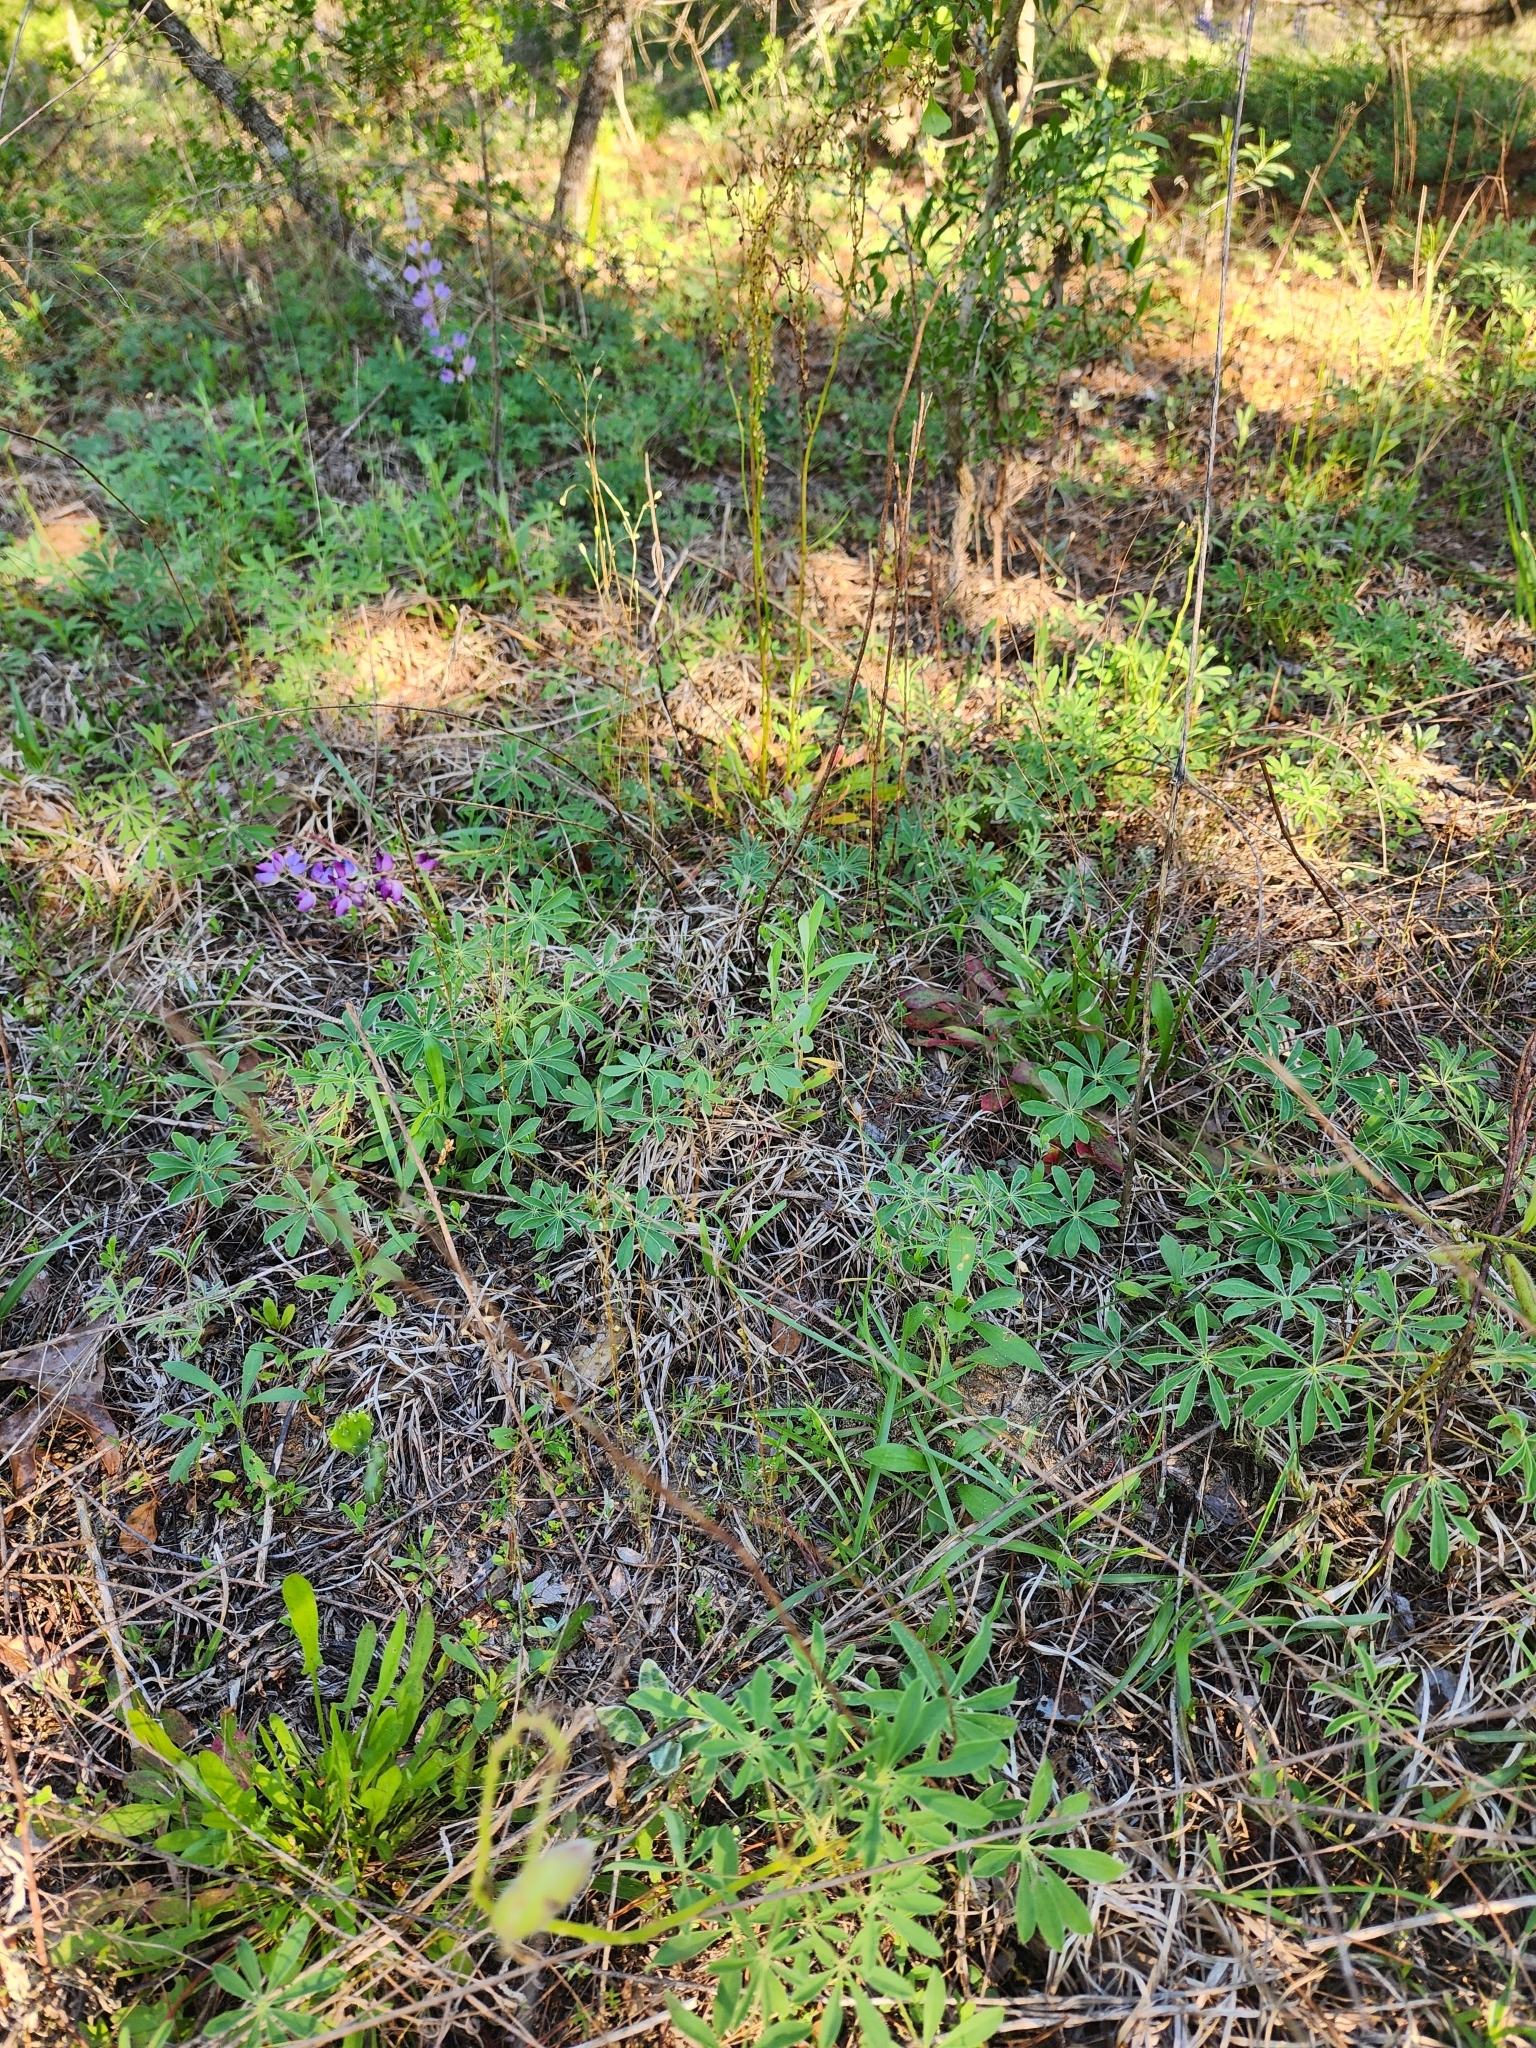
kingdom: Plantae
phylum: Tracheophyta
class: Magnoliopsida
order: Fabales
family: Fabaceae
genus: Lupinus
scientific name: Lupinus perennis
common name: Sundial lupine
